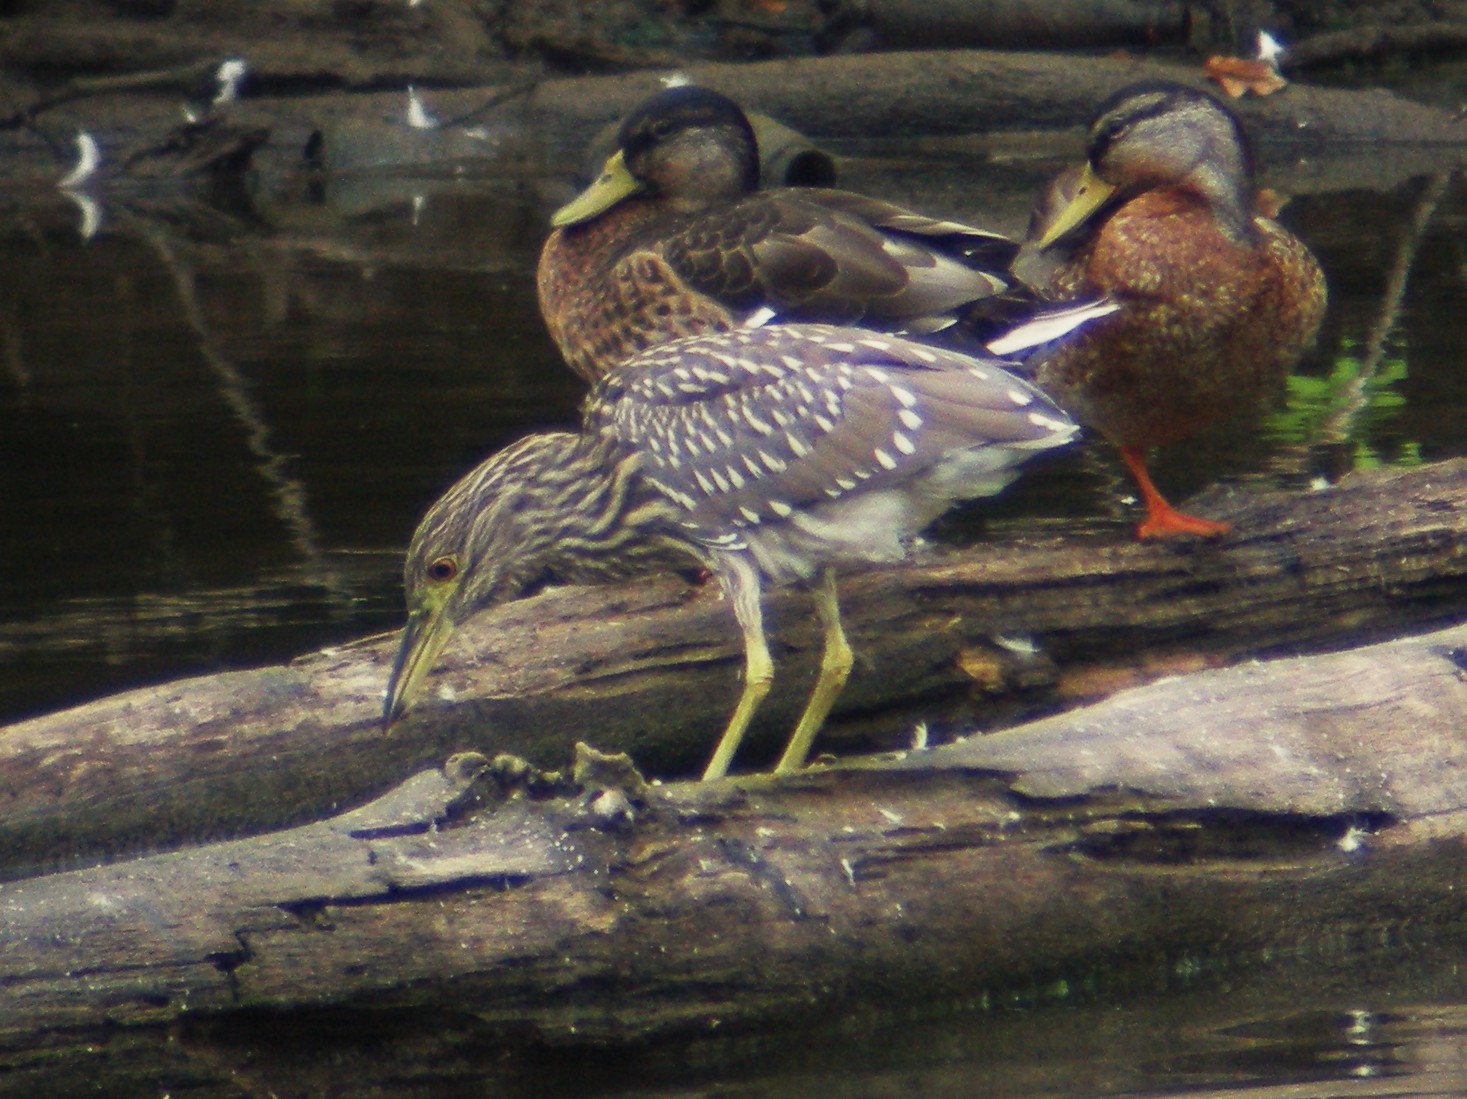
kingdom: Animalia
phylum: Chordata
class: Aves
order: Pelecaniformes
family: Ardeidae
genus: Nycticorax
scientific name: Nycticorax nycticorax
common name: Black-crowned night heron
